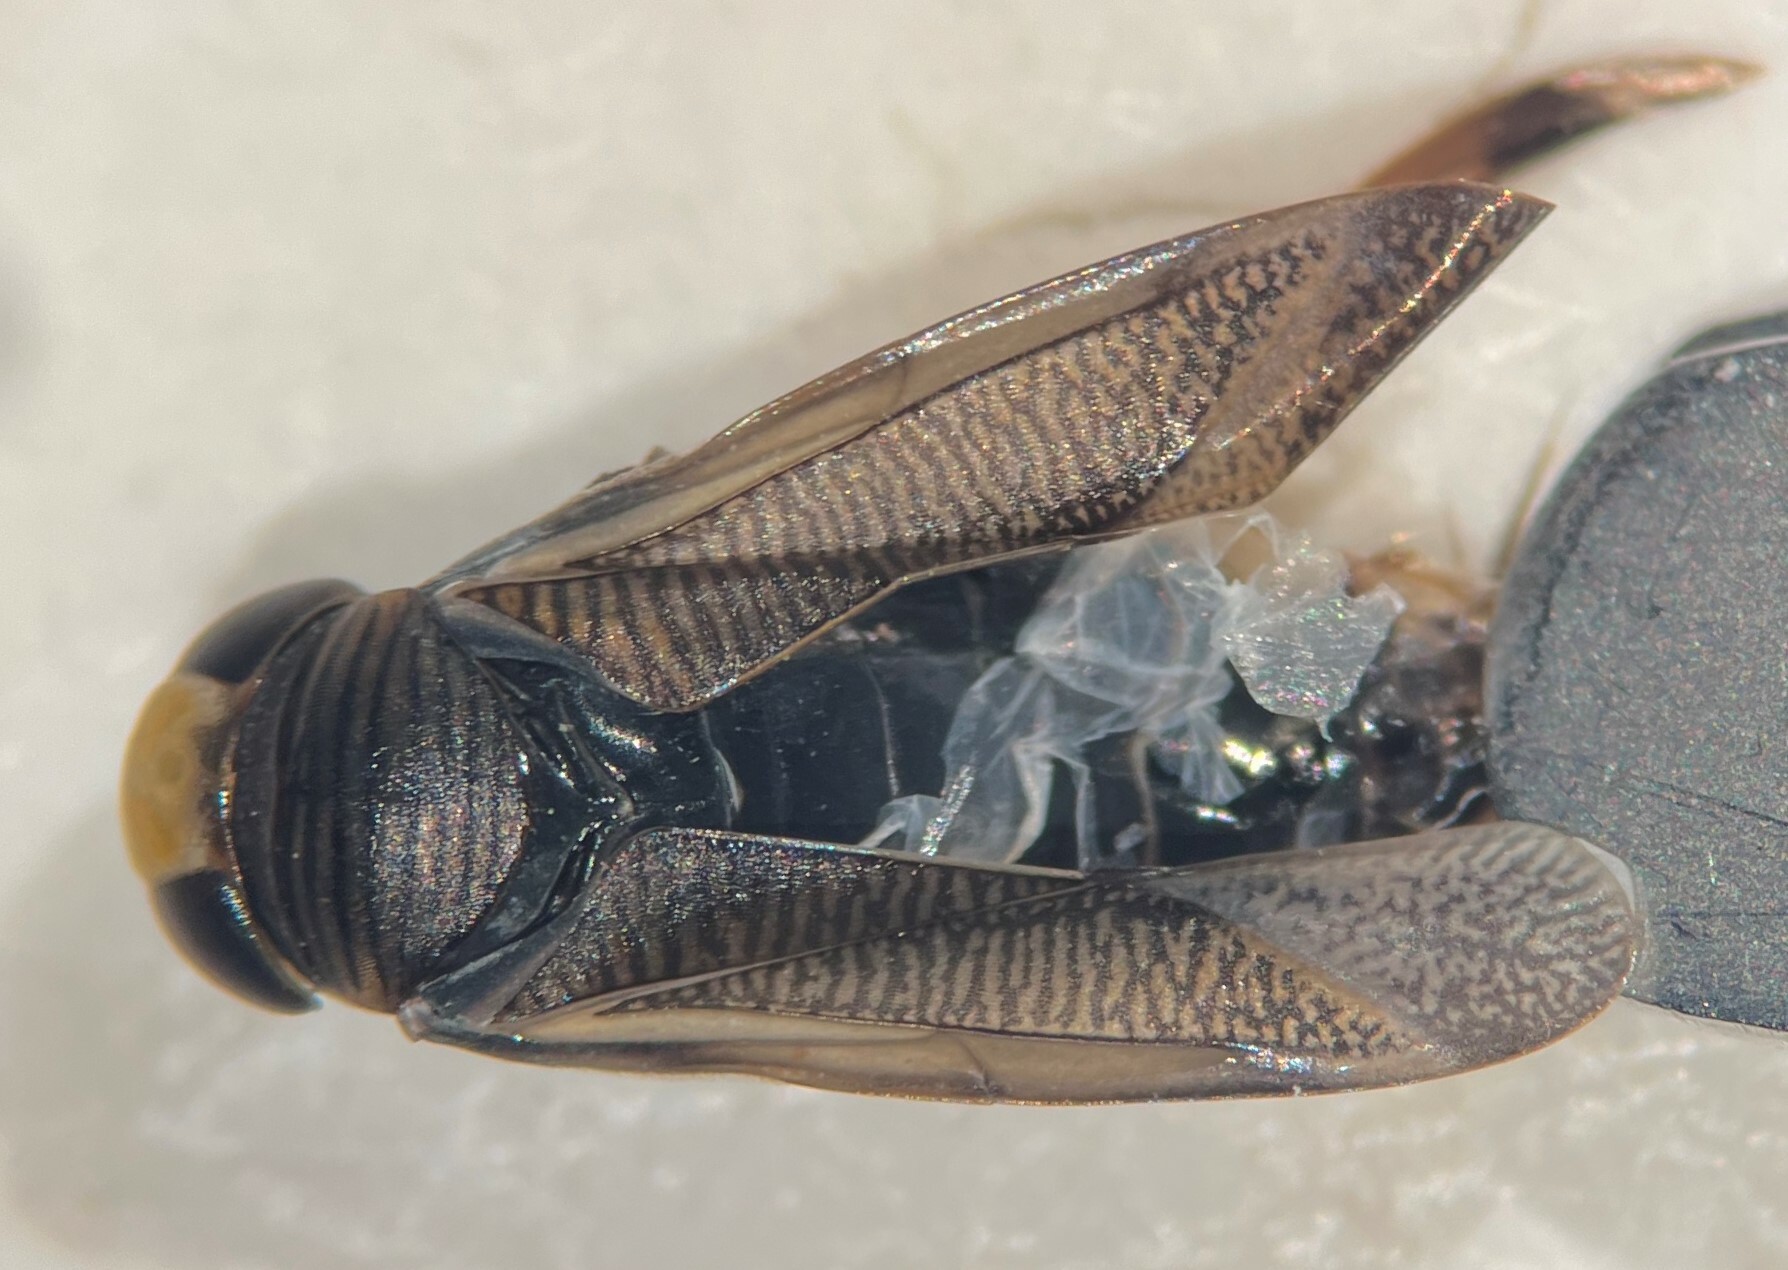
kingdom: Animalia
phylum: Arthropoda
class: Insecta
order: Hemiptera
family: Corixidae
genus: Callicorixa
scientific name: Callicorixa tetoni
